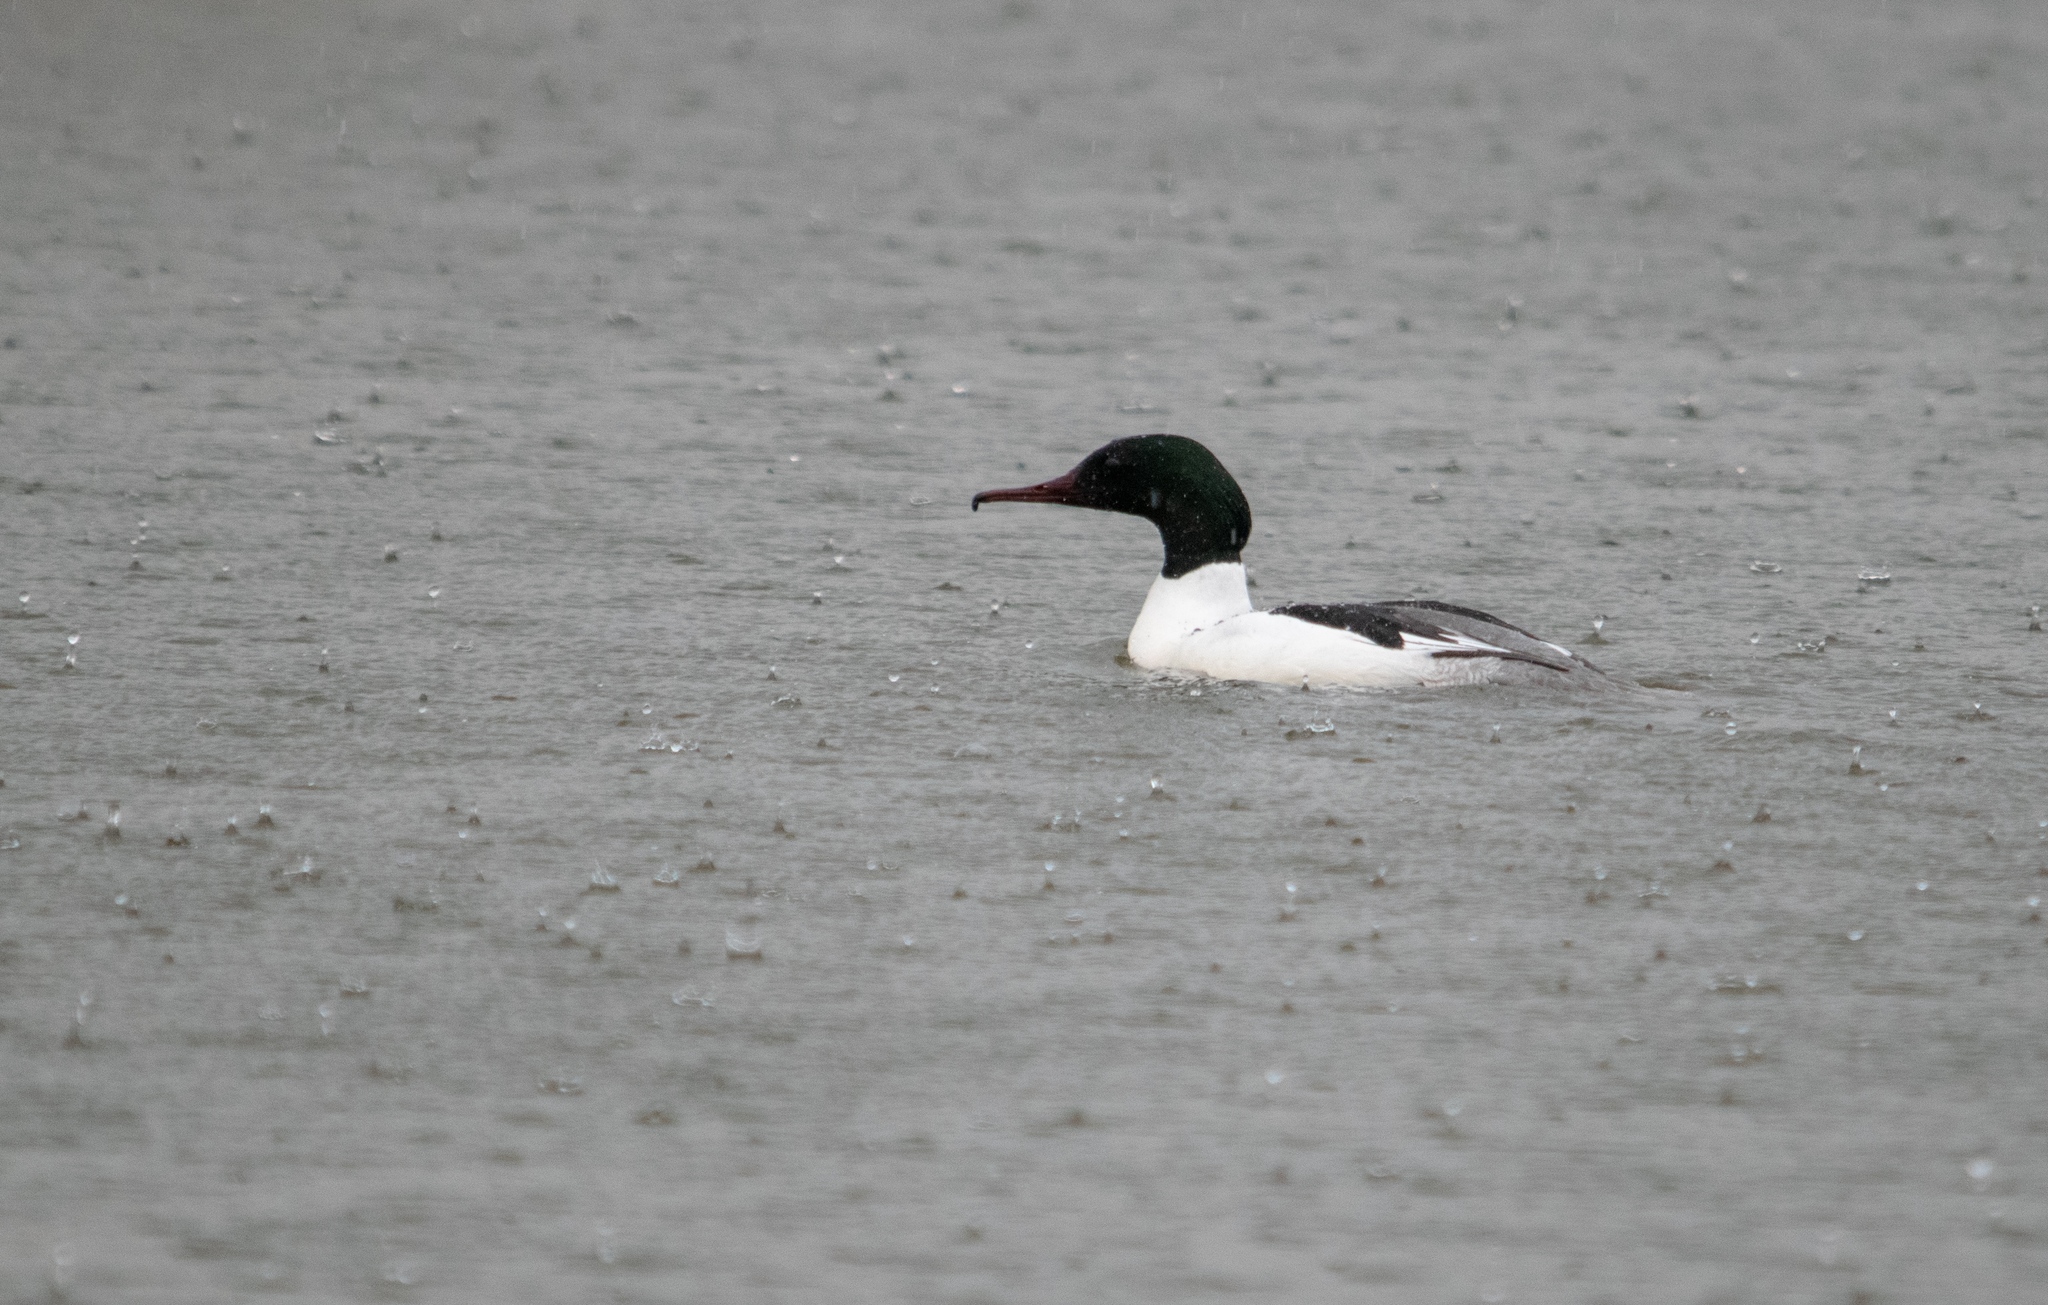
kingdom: Animalia
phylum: Chordata
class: Aves
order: Anseriformes
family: Anatidae
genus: Mergus
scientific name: Mergus merganser
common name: Common merganser
